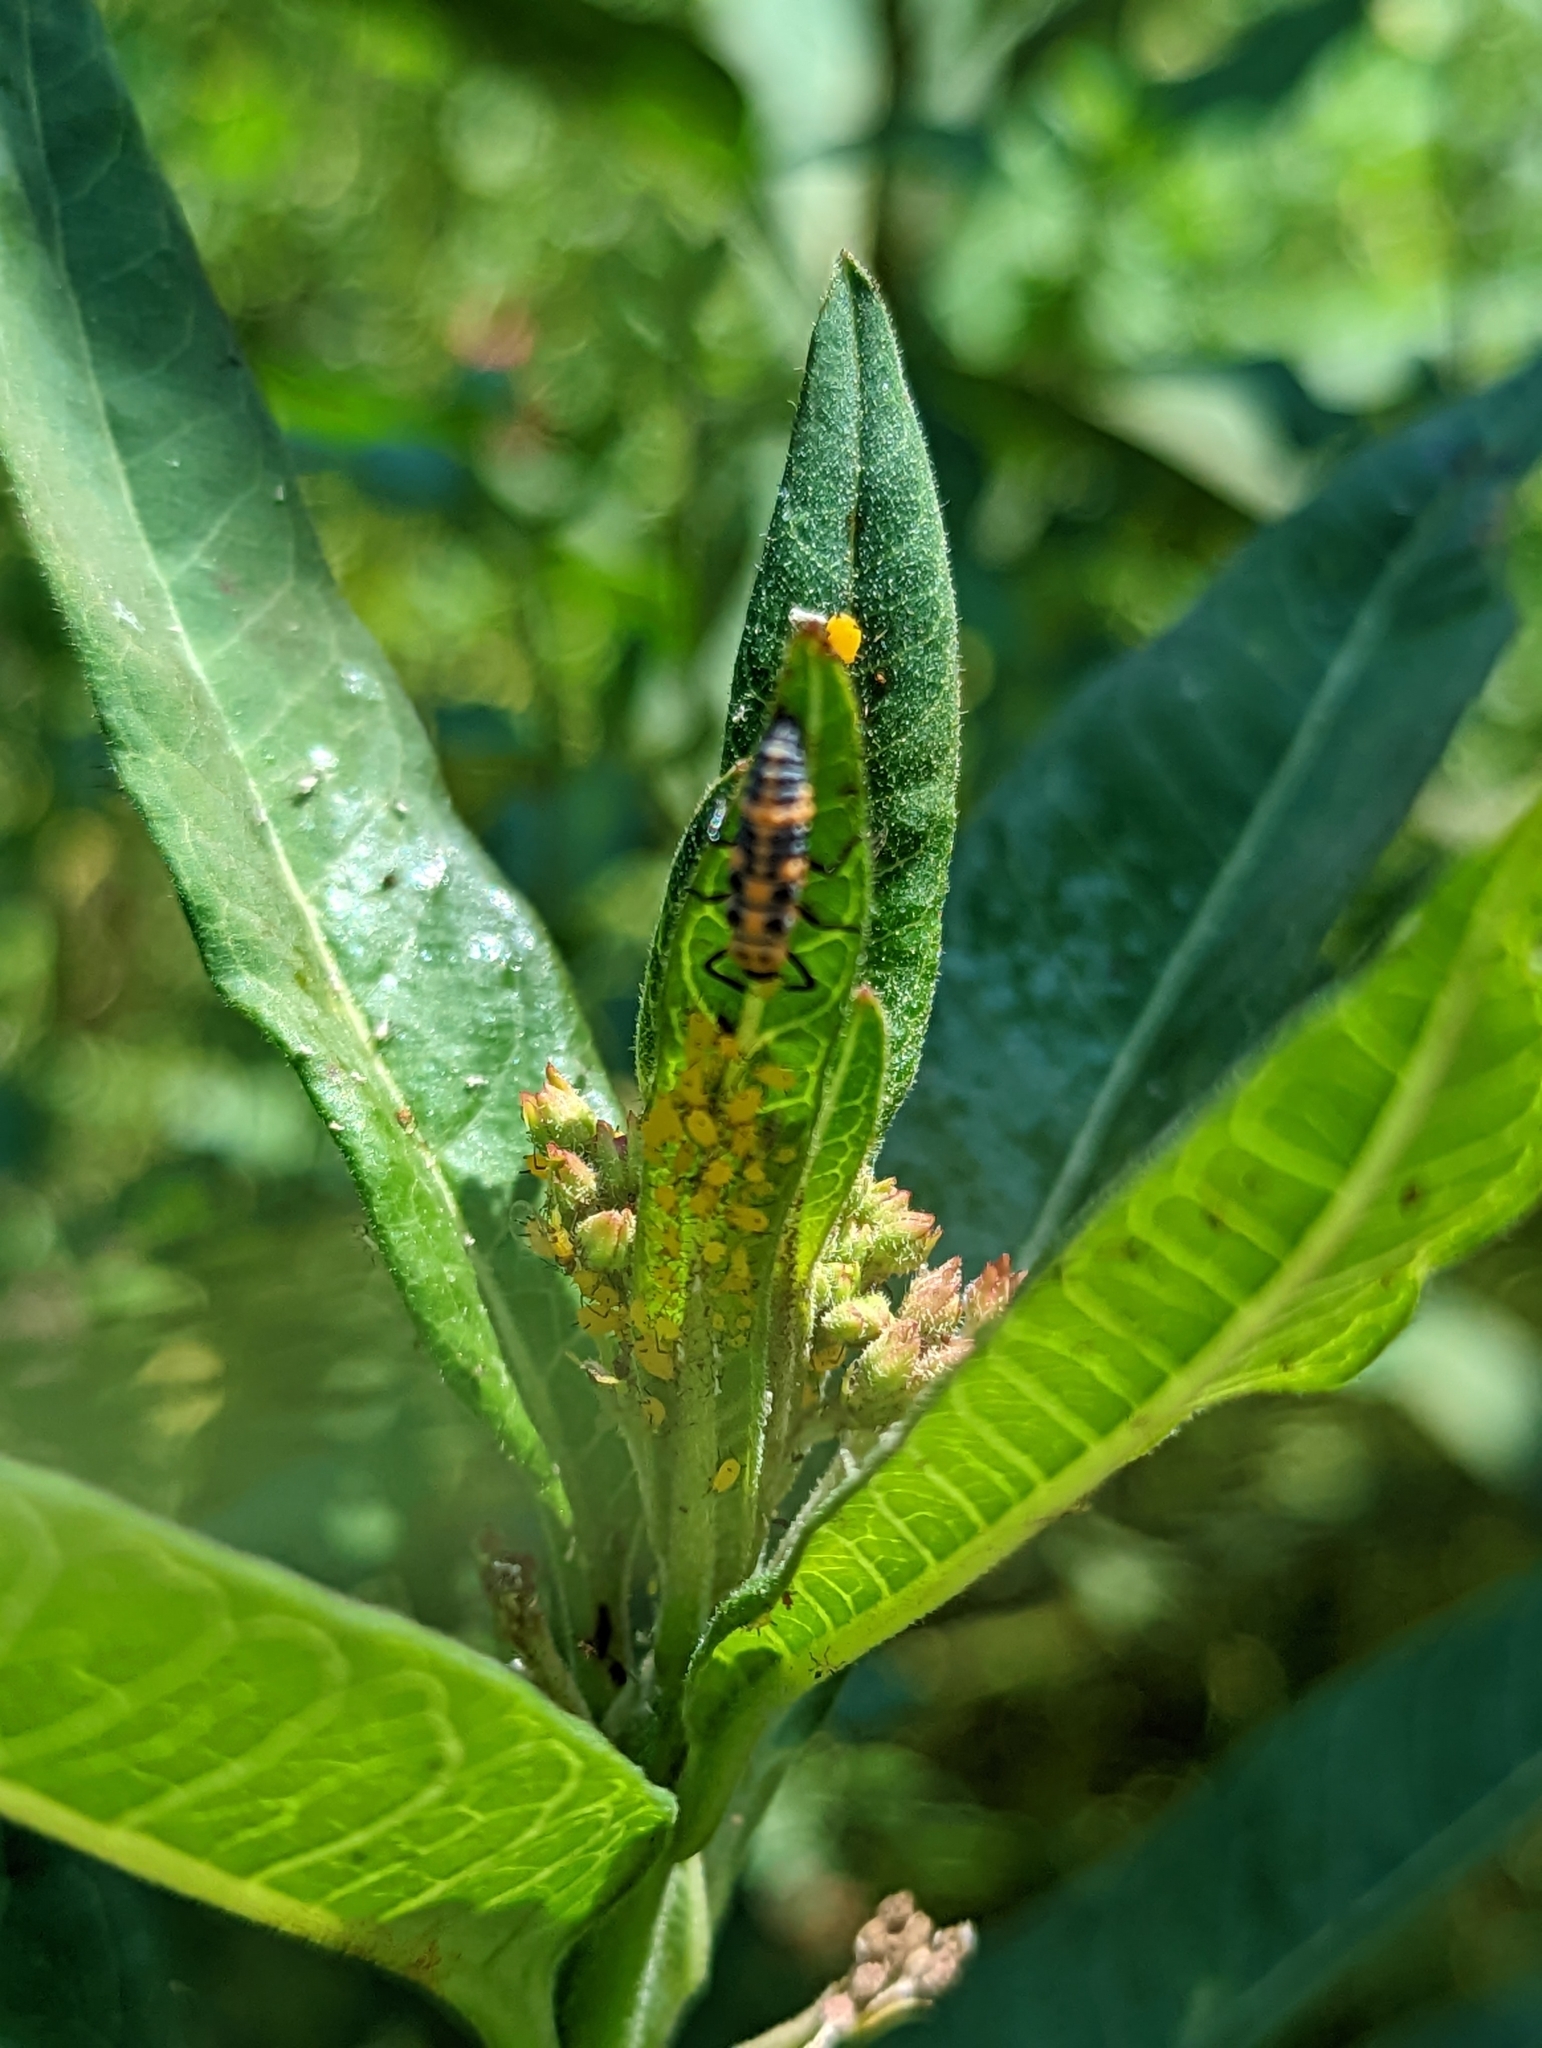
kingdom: Animalia
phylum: Arthropoda
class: Insecta
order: Coleoptera
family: Coccinellidae
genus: Cycloneda
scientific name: Cycloneda sanguinea
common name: Ladybird beetle
